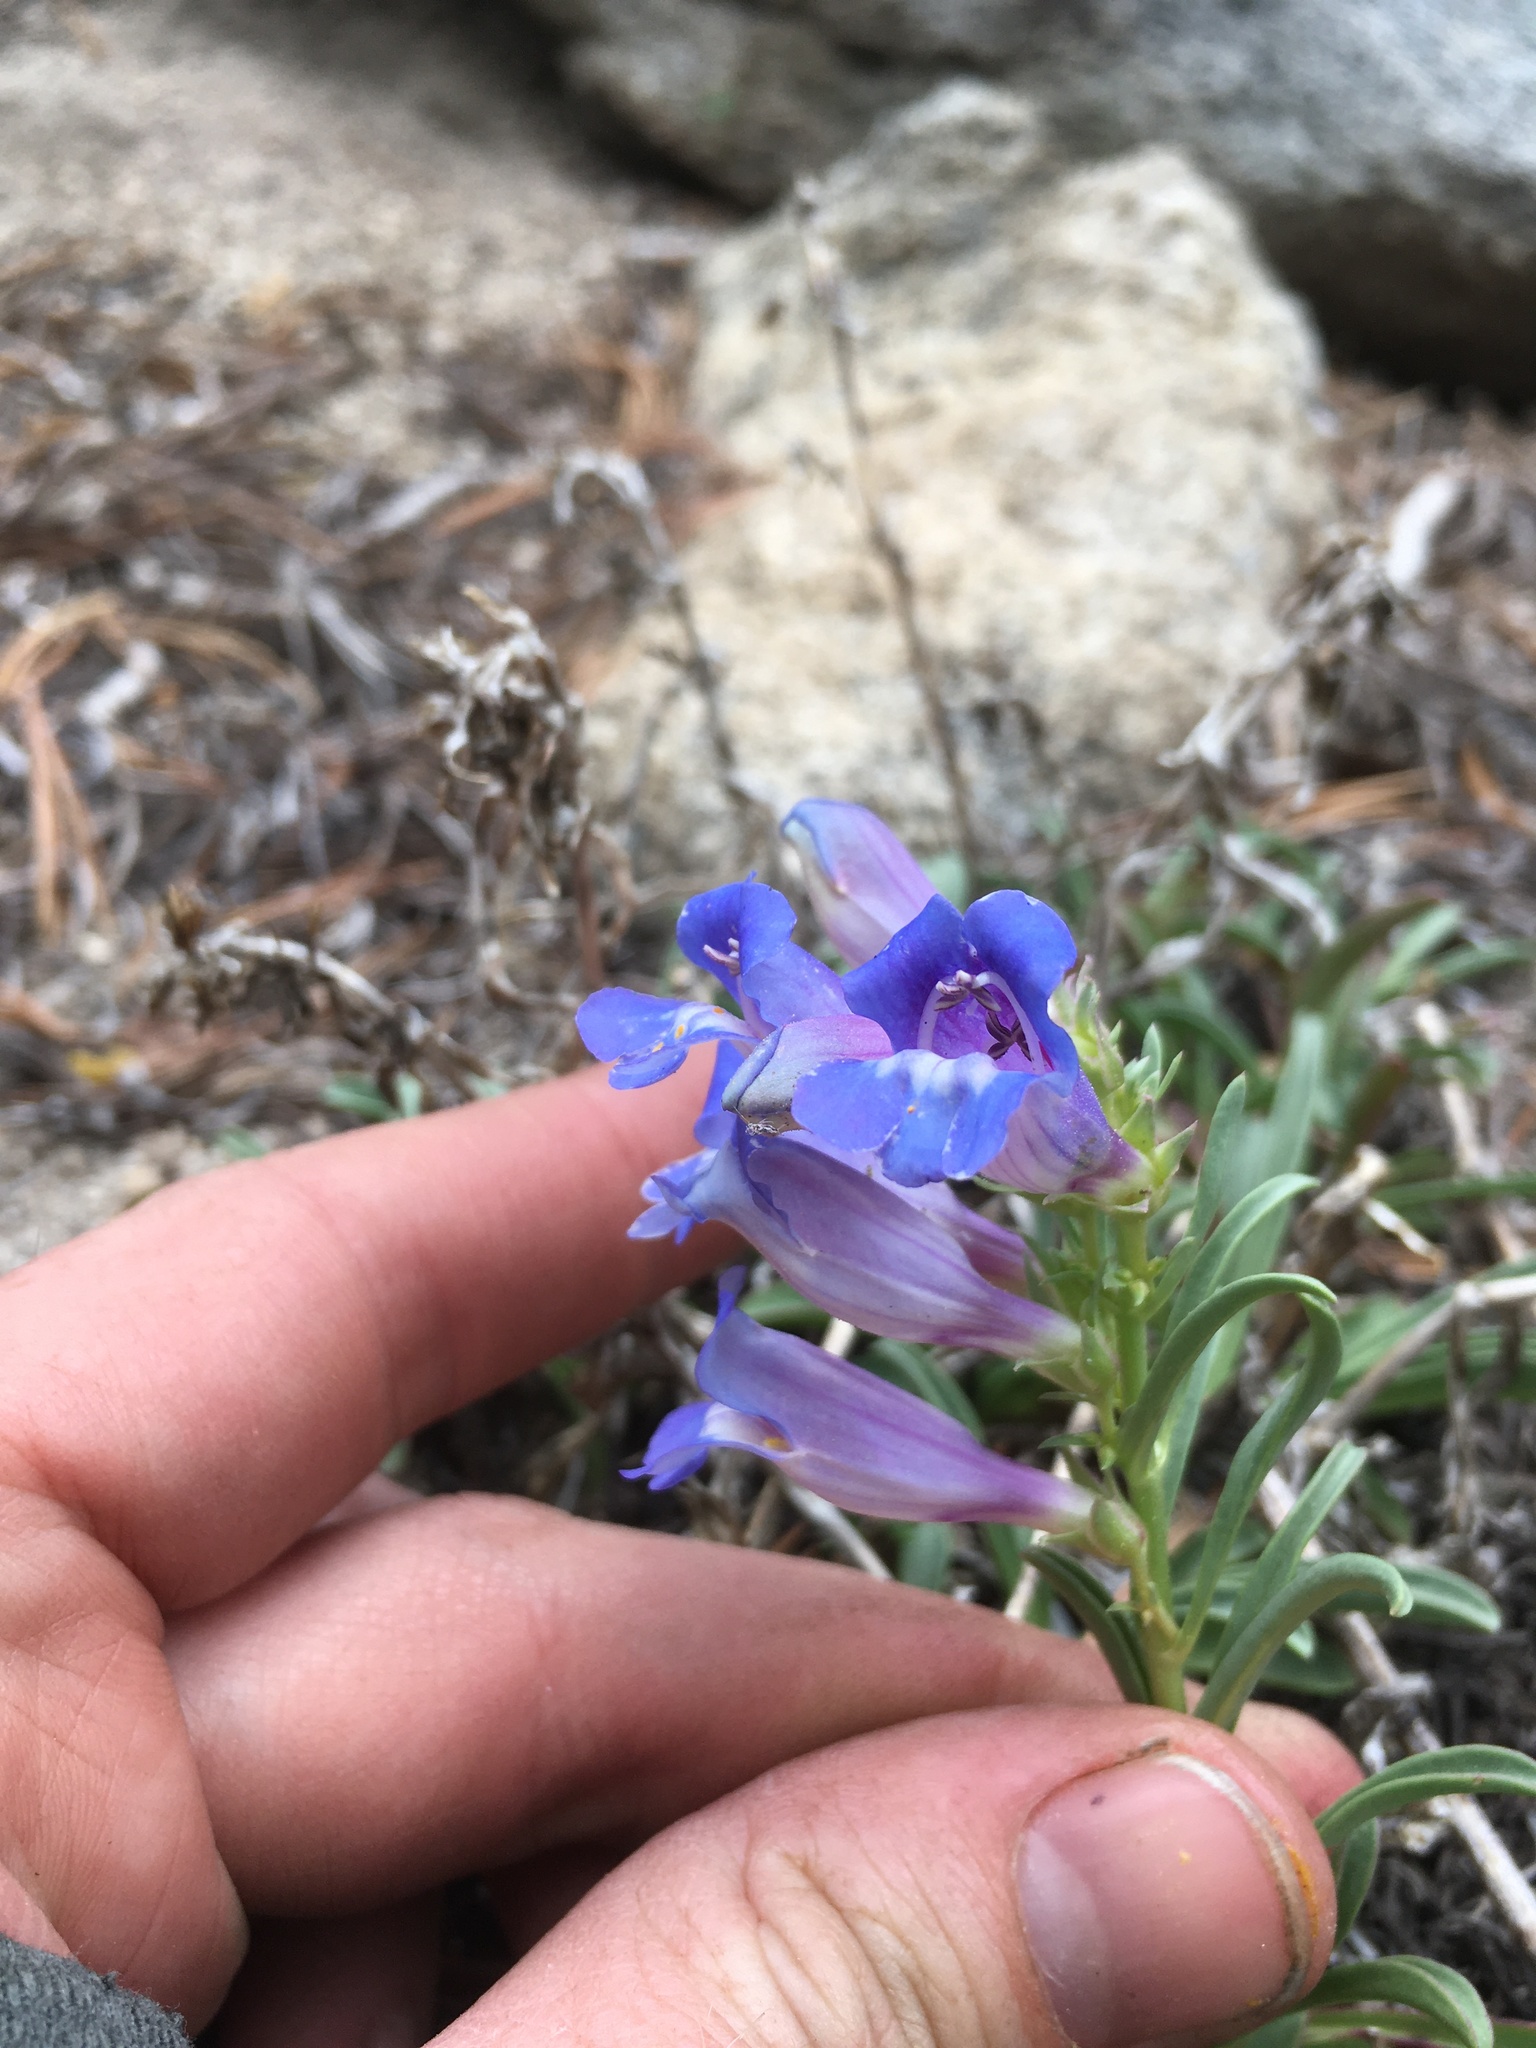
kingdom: Plantae
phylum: Tracheophyta
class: Magnoliopsida
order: Lamiales
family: Plantaginaceae
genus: Penstemon
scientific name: Penstemon speciosus
